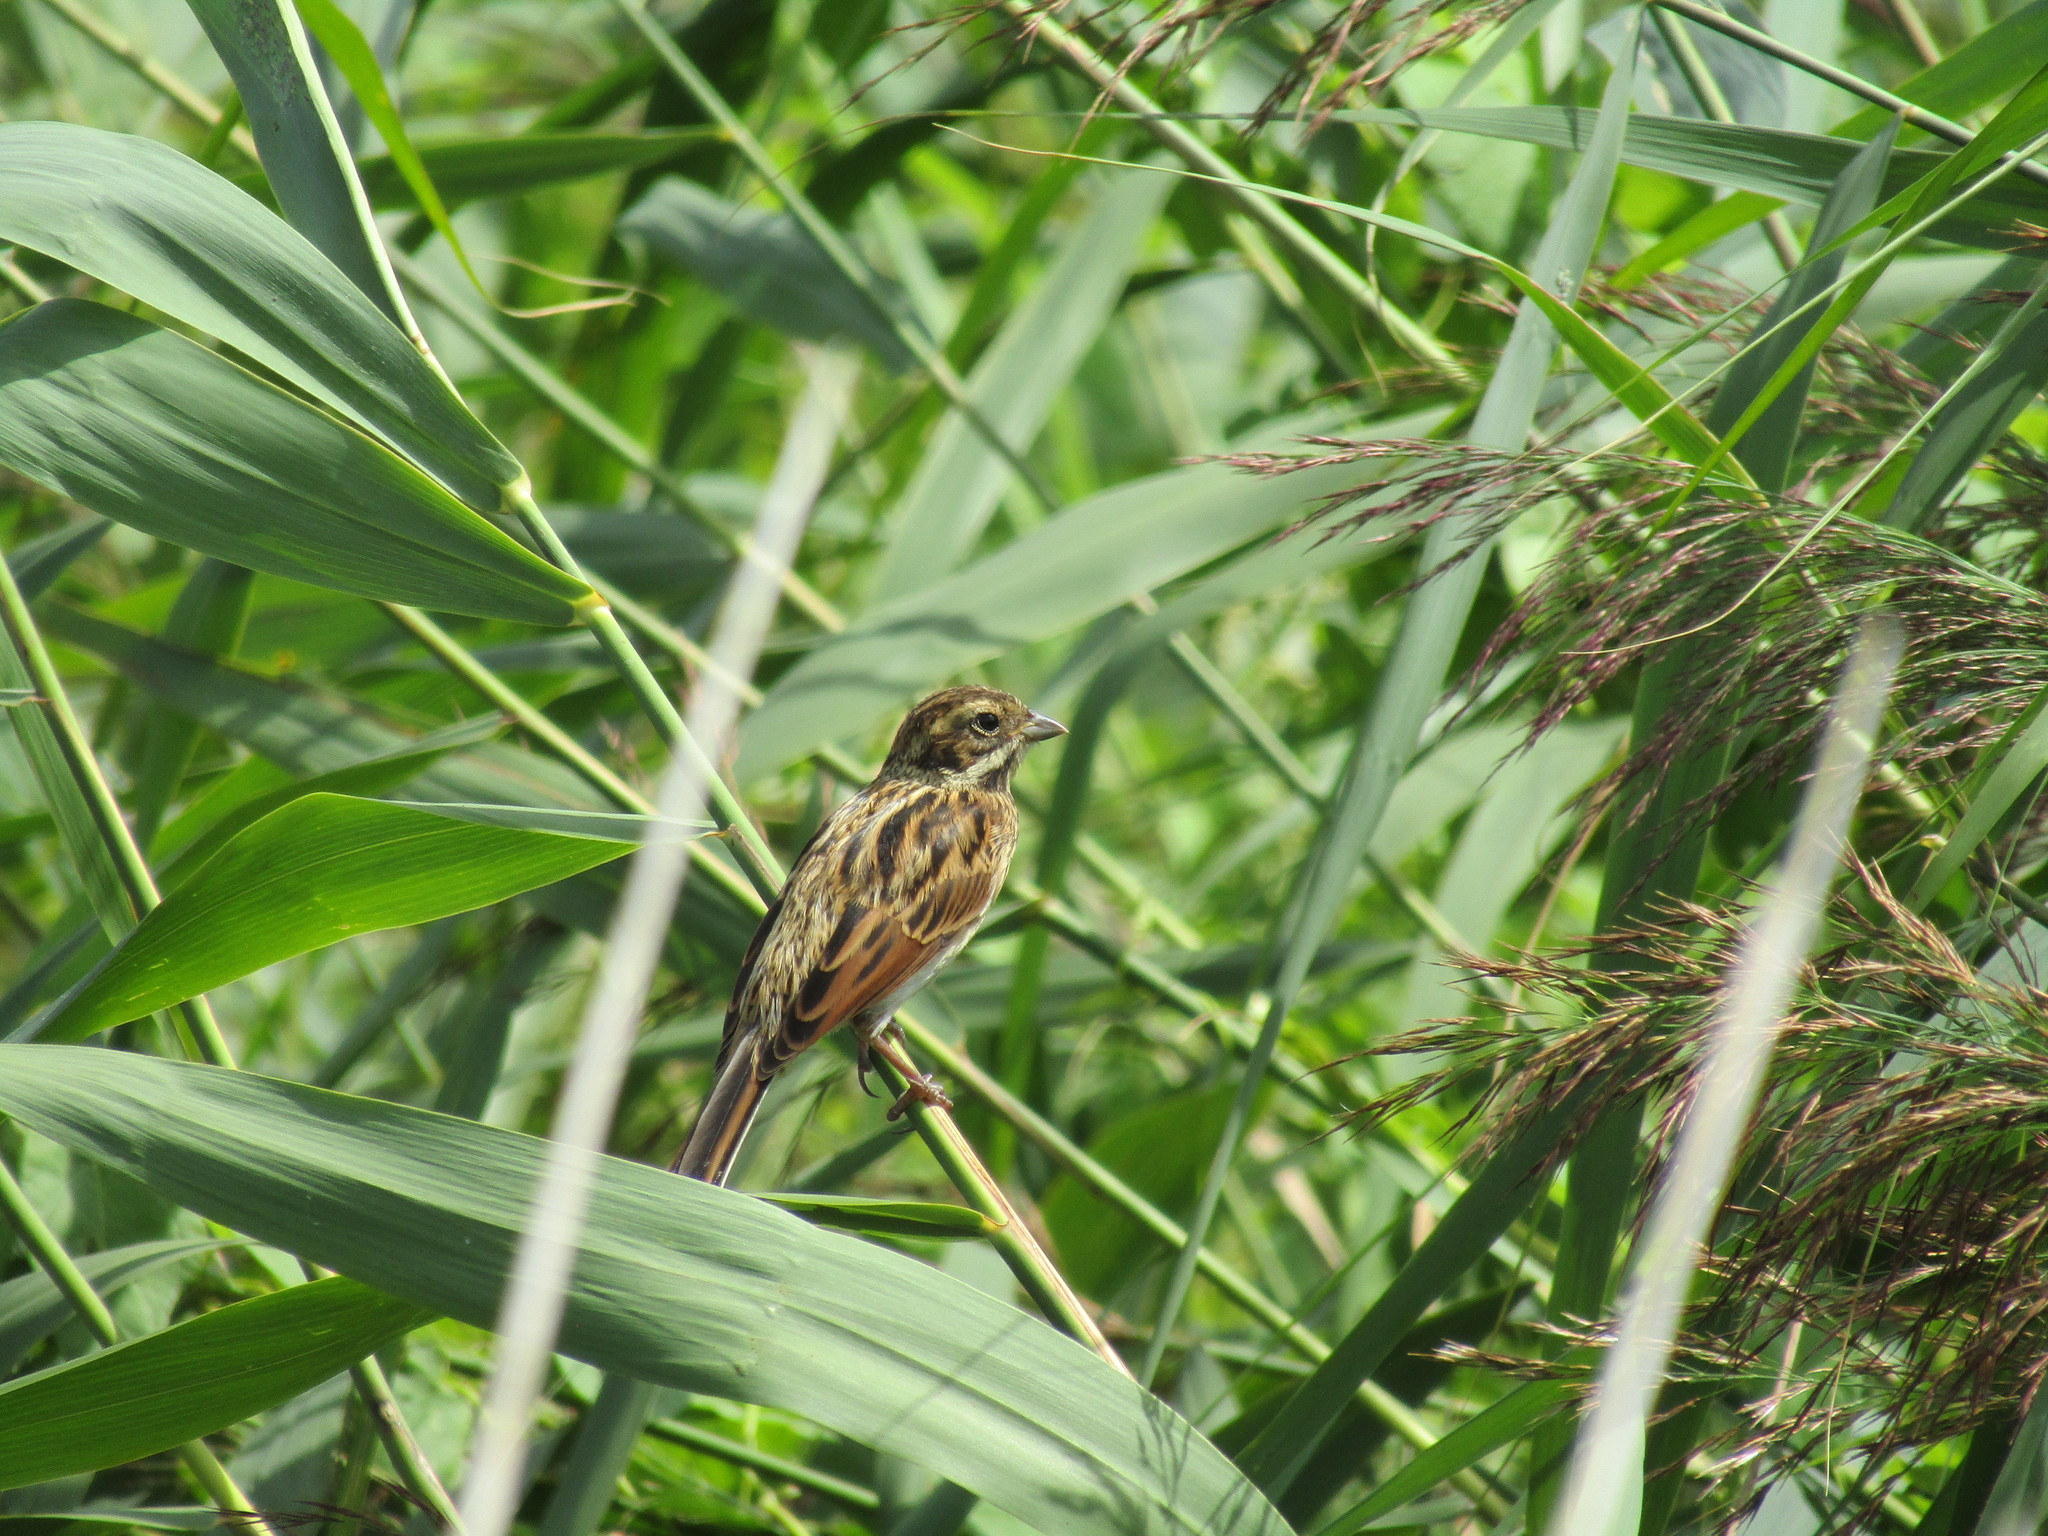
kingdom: Animalia
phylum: Chordata
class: Aves
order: Passeriformes
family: Emberizidae
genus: Emberiza
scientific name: Emberiza schoeniclus
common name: Reed bunting
